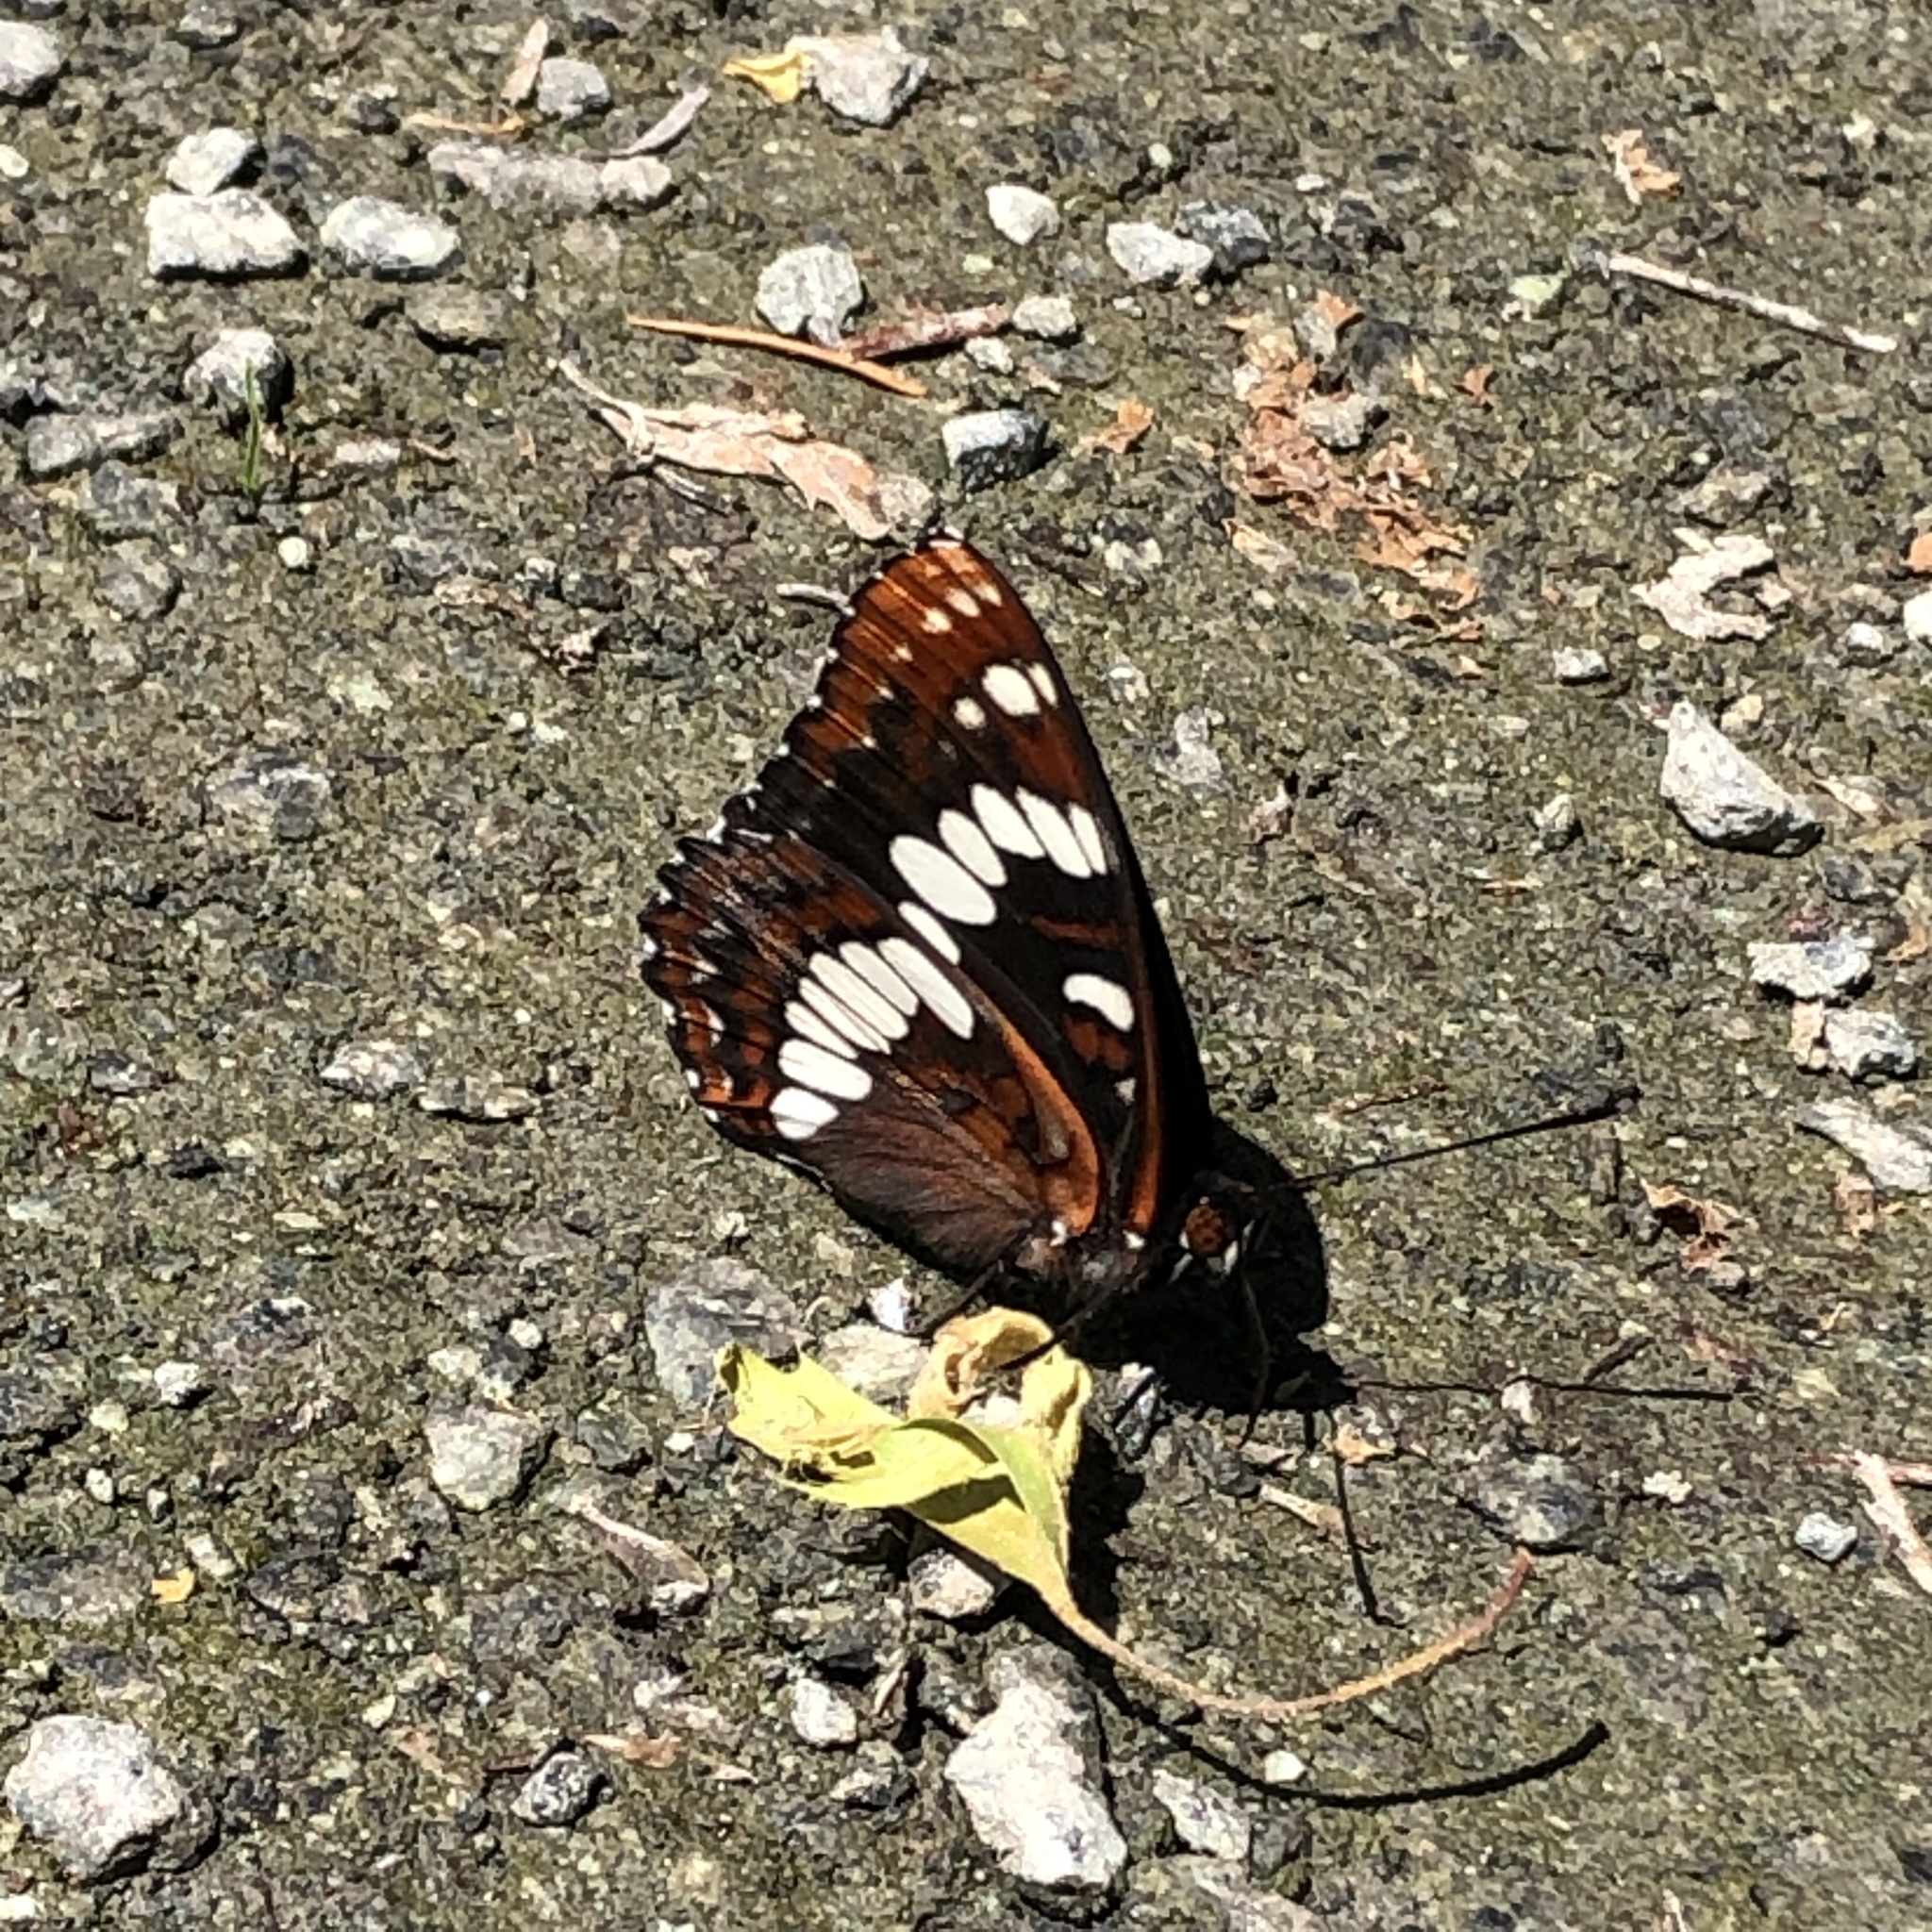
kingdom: Animalia
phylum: Arthropoda
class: Insecta
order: Lepidoptera
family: Nymphalidae
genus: Limenitis
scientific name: Limenitis lorquini
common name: Lorquin's admiral
